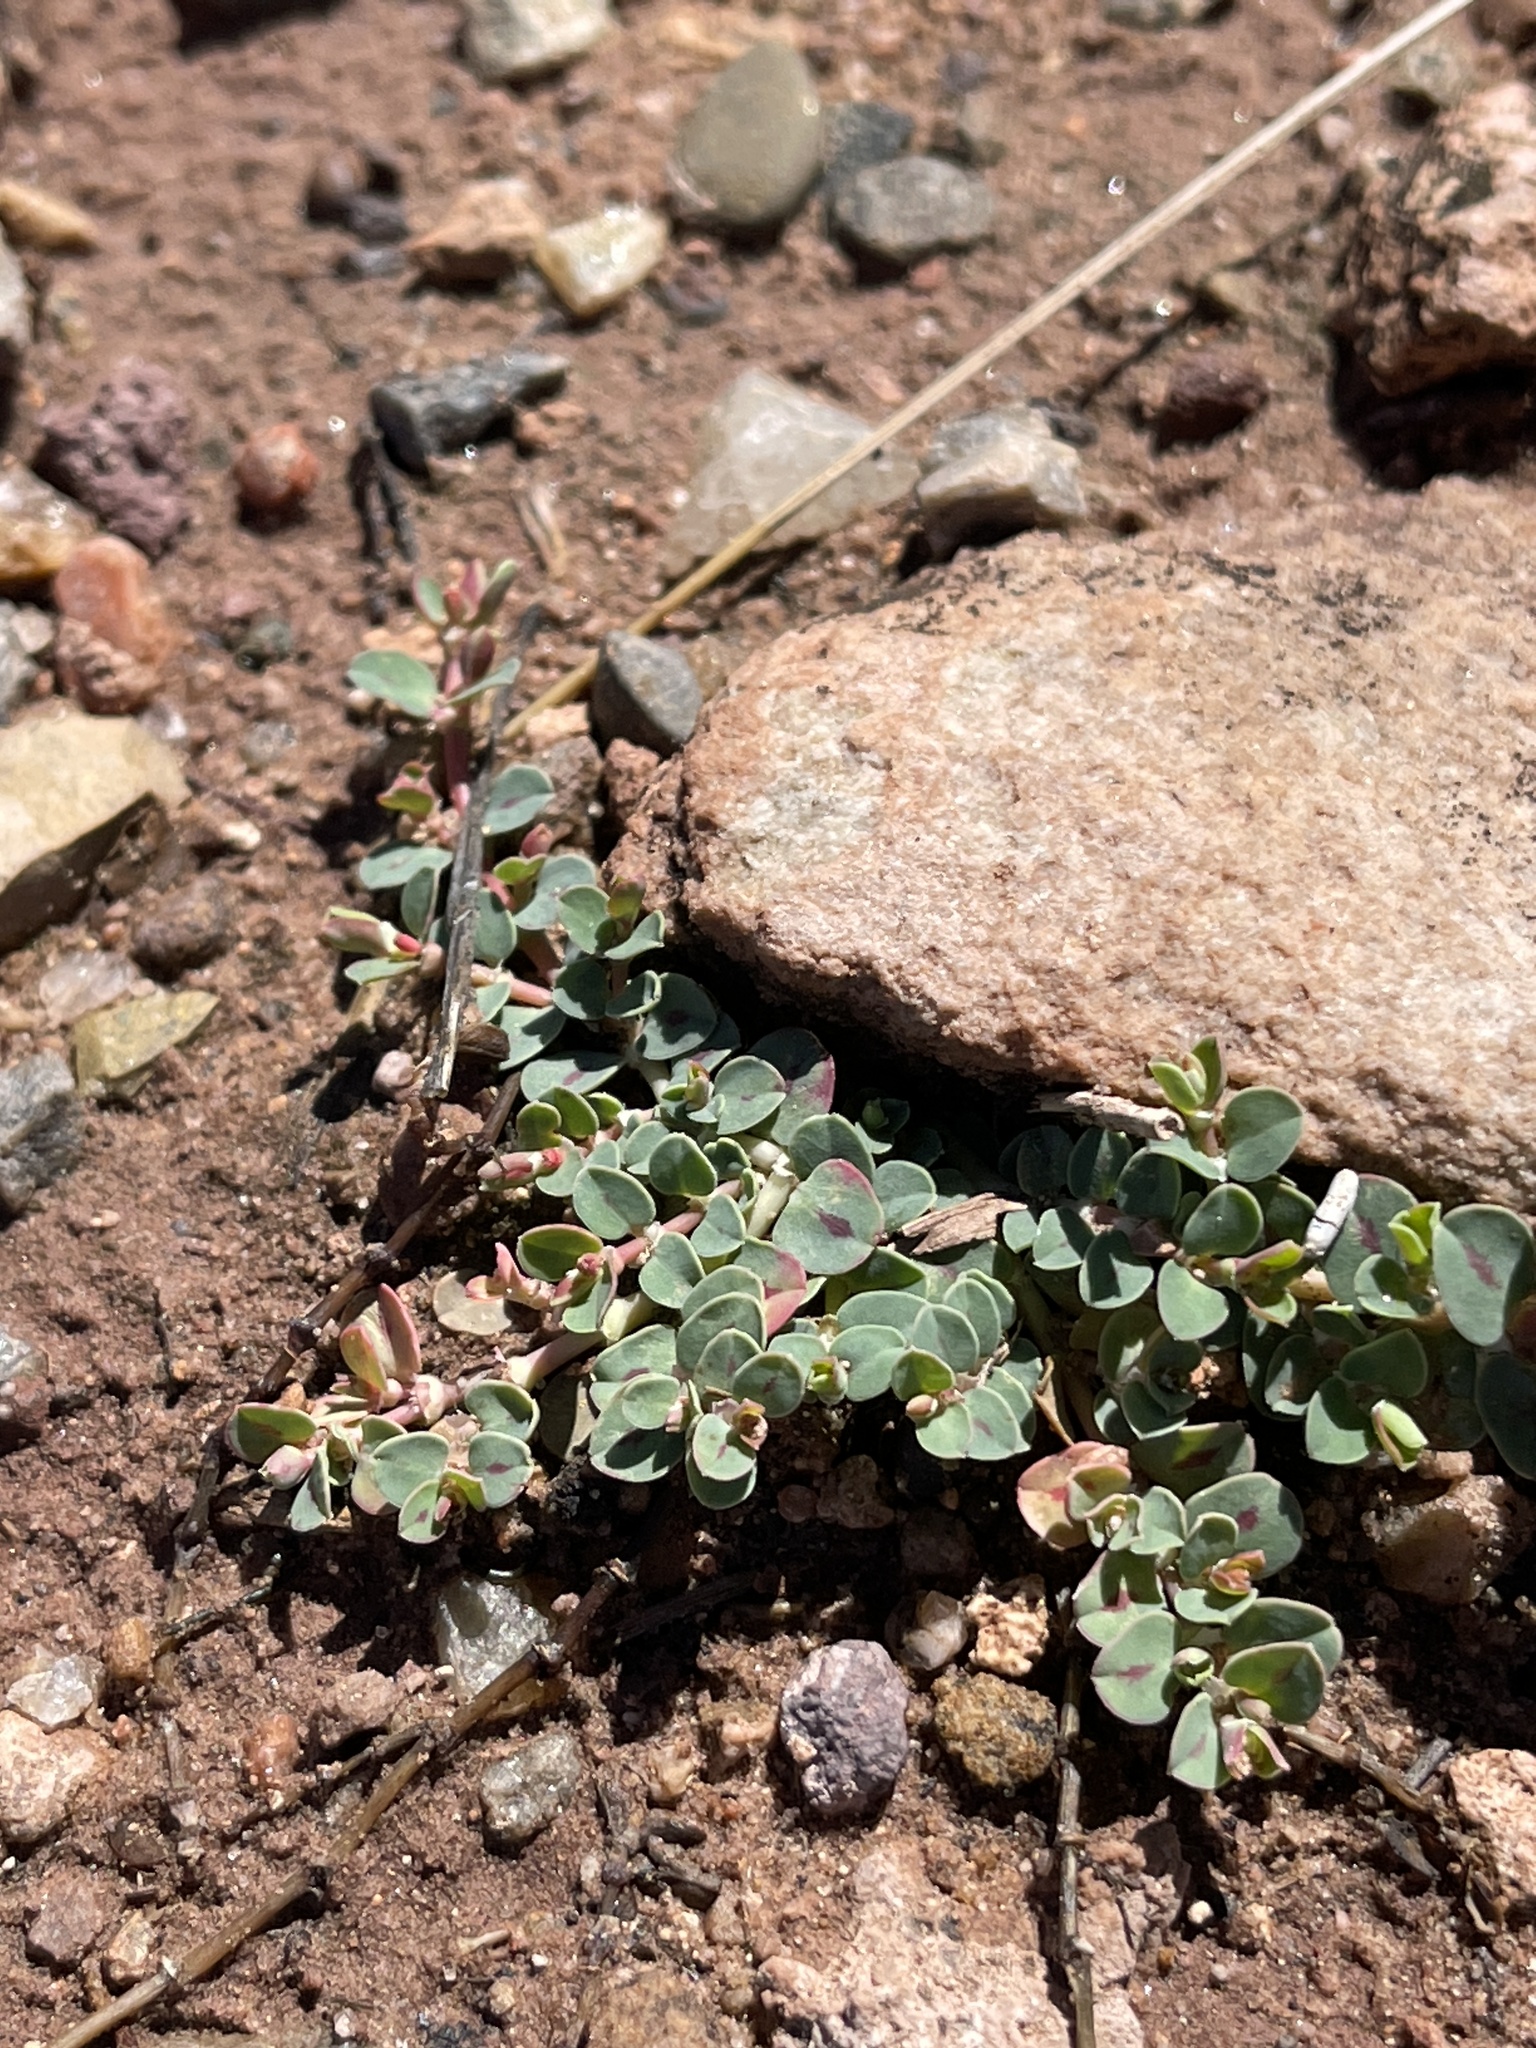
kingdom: Plantae
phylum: Tracheophyta
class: Magnoliopsida
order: Malpighiales
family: Euphorbiaceae
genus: Euphorbia
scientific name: Euphorbia albomarginata
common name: Whitemargin sandmat
